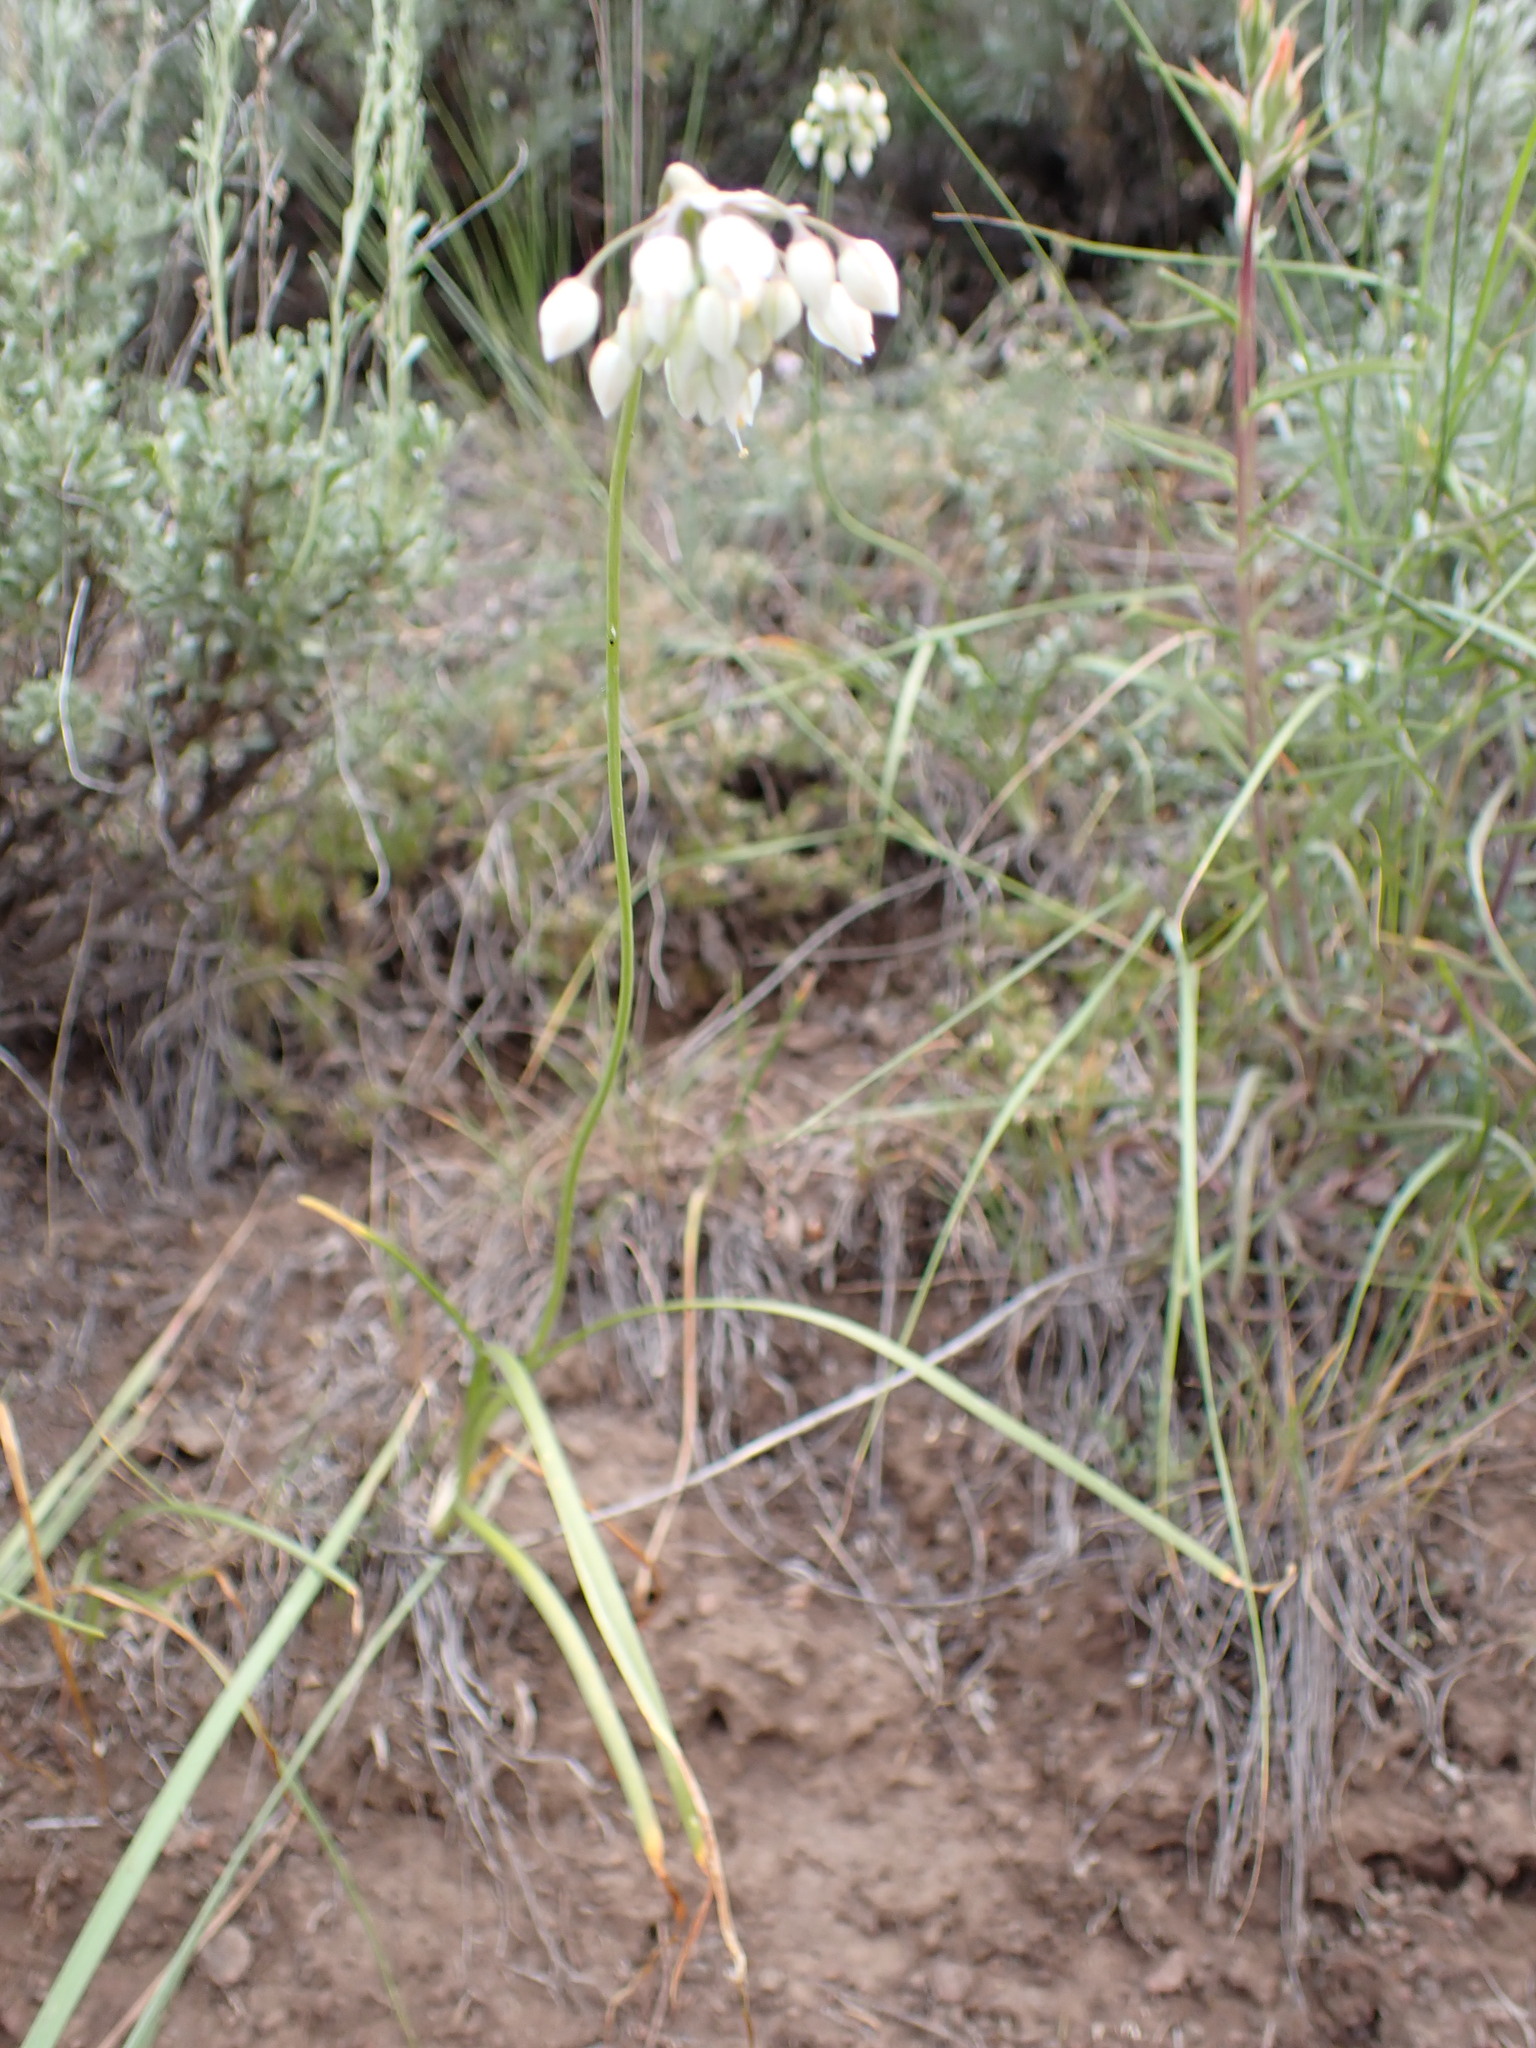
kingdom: Plantae
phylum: Tracheophyta
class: Liliopsida
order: Asparagales
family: Amaryllidaceae
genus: Allium
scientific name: Allium cernuum
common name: Nodding onion
